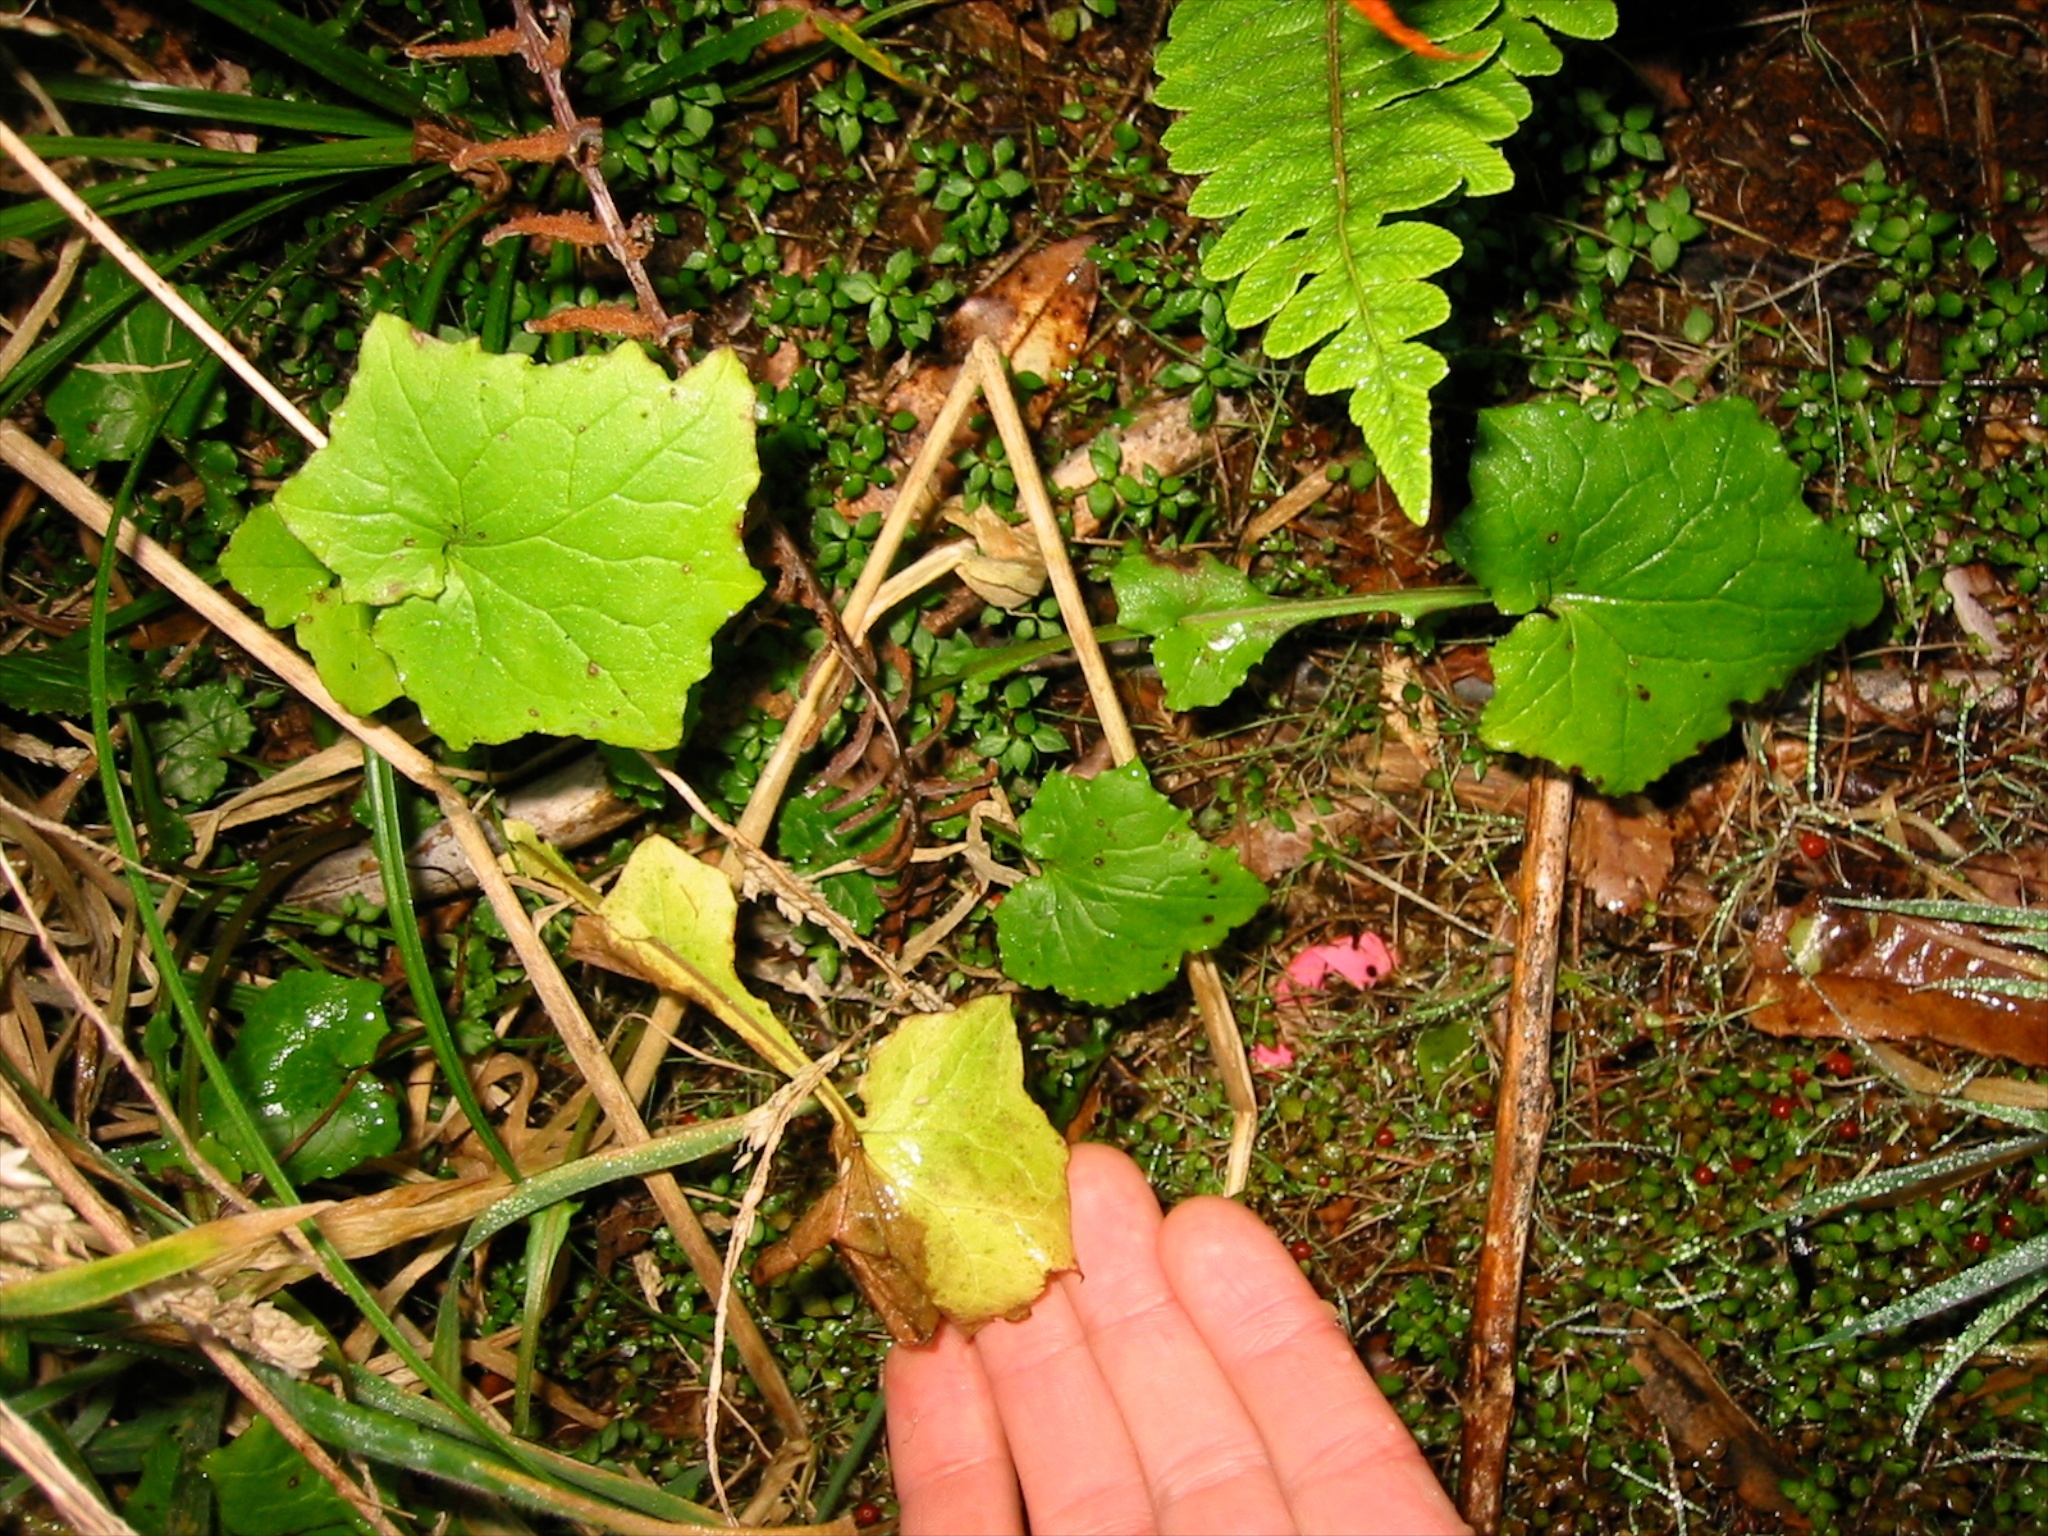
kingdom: Plantae
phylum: Tracheophyta
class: Magnoliopsida
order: Asterales
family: Asteraceae
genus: Mycelis
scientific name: Mycelis muralis
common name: Wall lettuce
